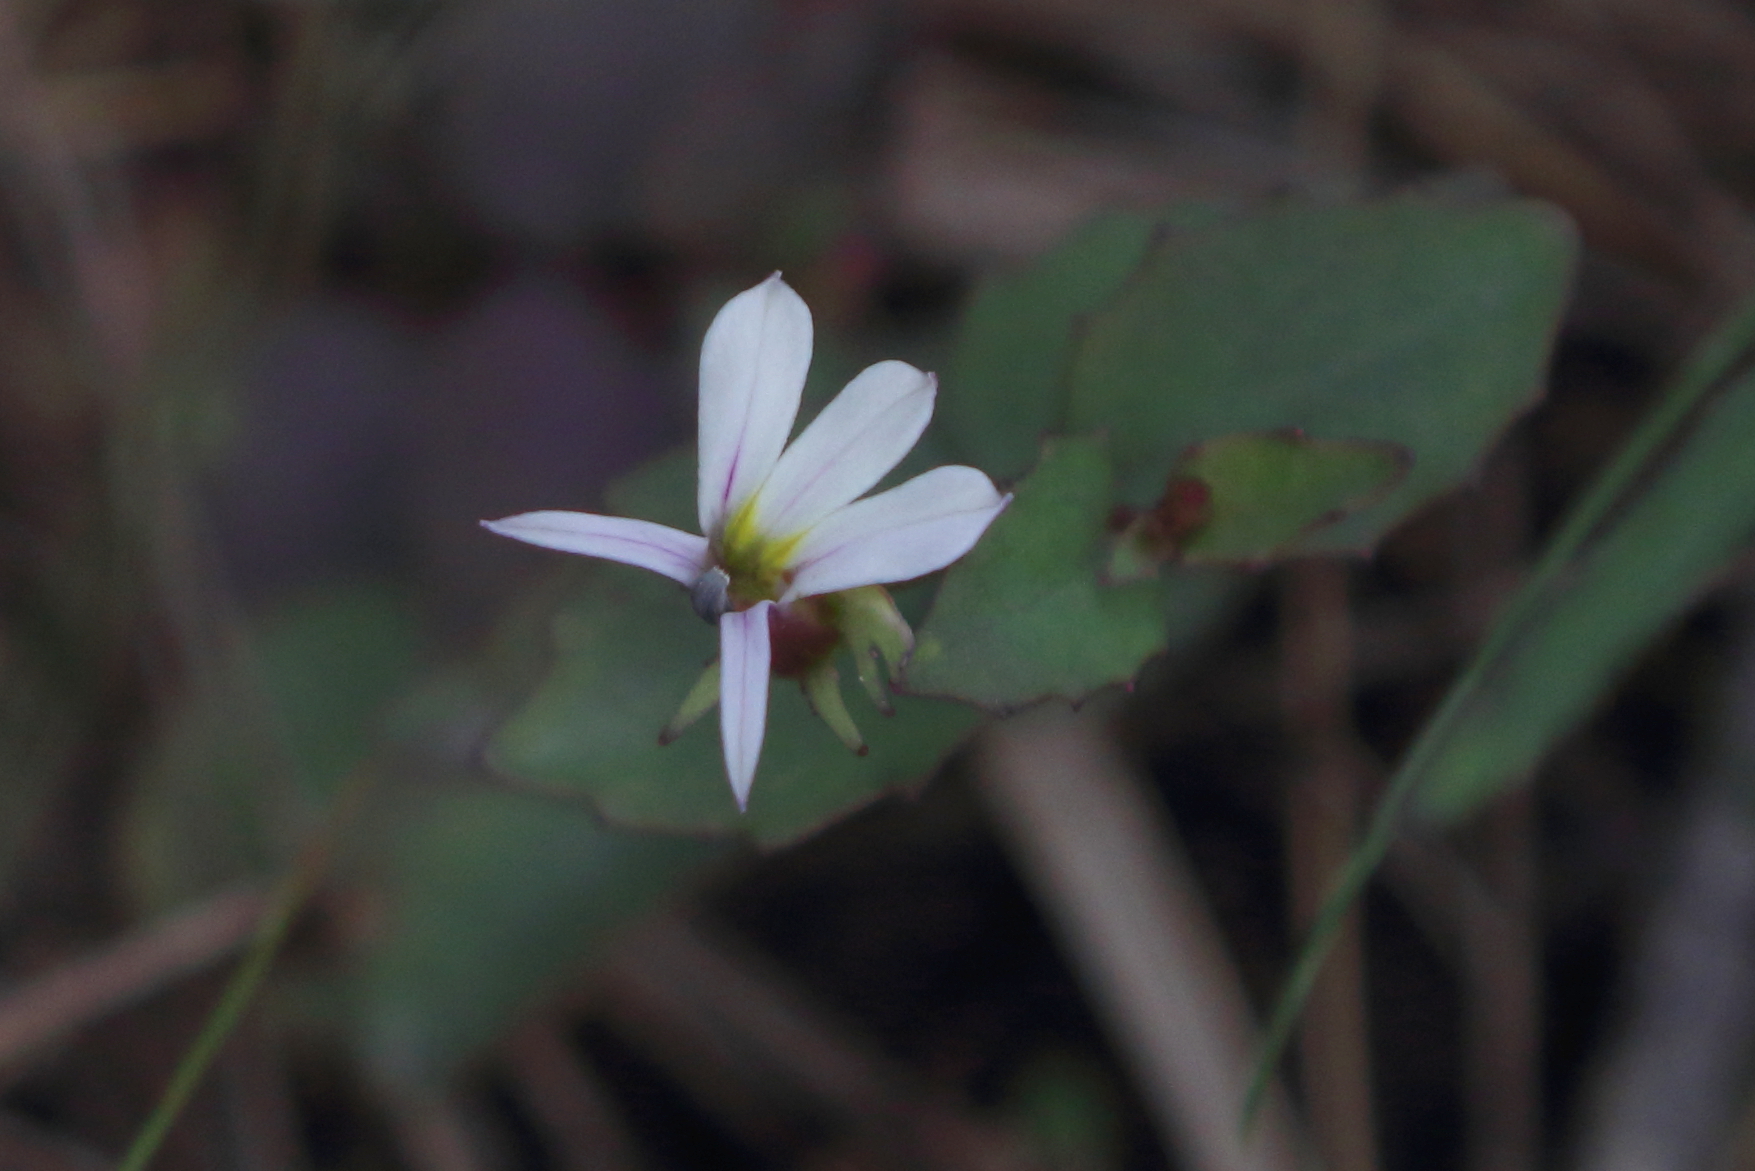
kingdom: Plantae
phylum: Tracheophyta
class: Magnoliopsida
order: Asterales
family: Campanulaceae
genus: Lobelia
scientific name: Lobelia purpurascens
